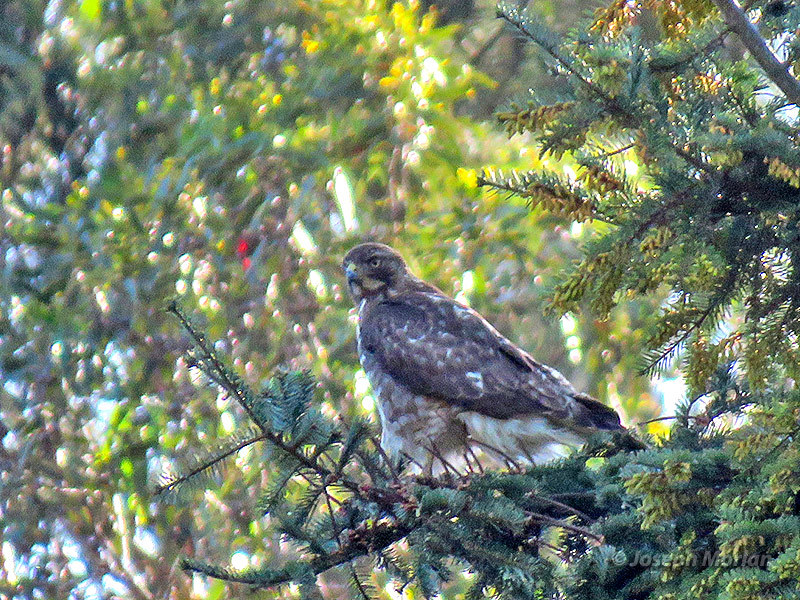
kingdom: Animalia
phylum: Chordata
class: Aves
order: Accipitriformes
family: Accipitridae
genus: Buteo
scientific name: Buteo jamaicensis
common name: Red-tailed hawk
